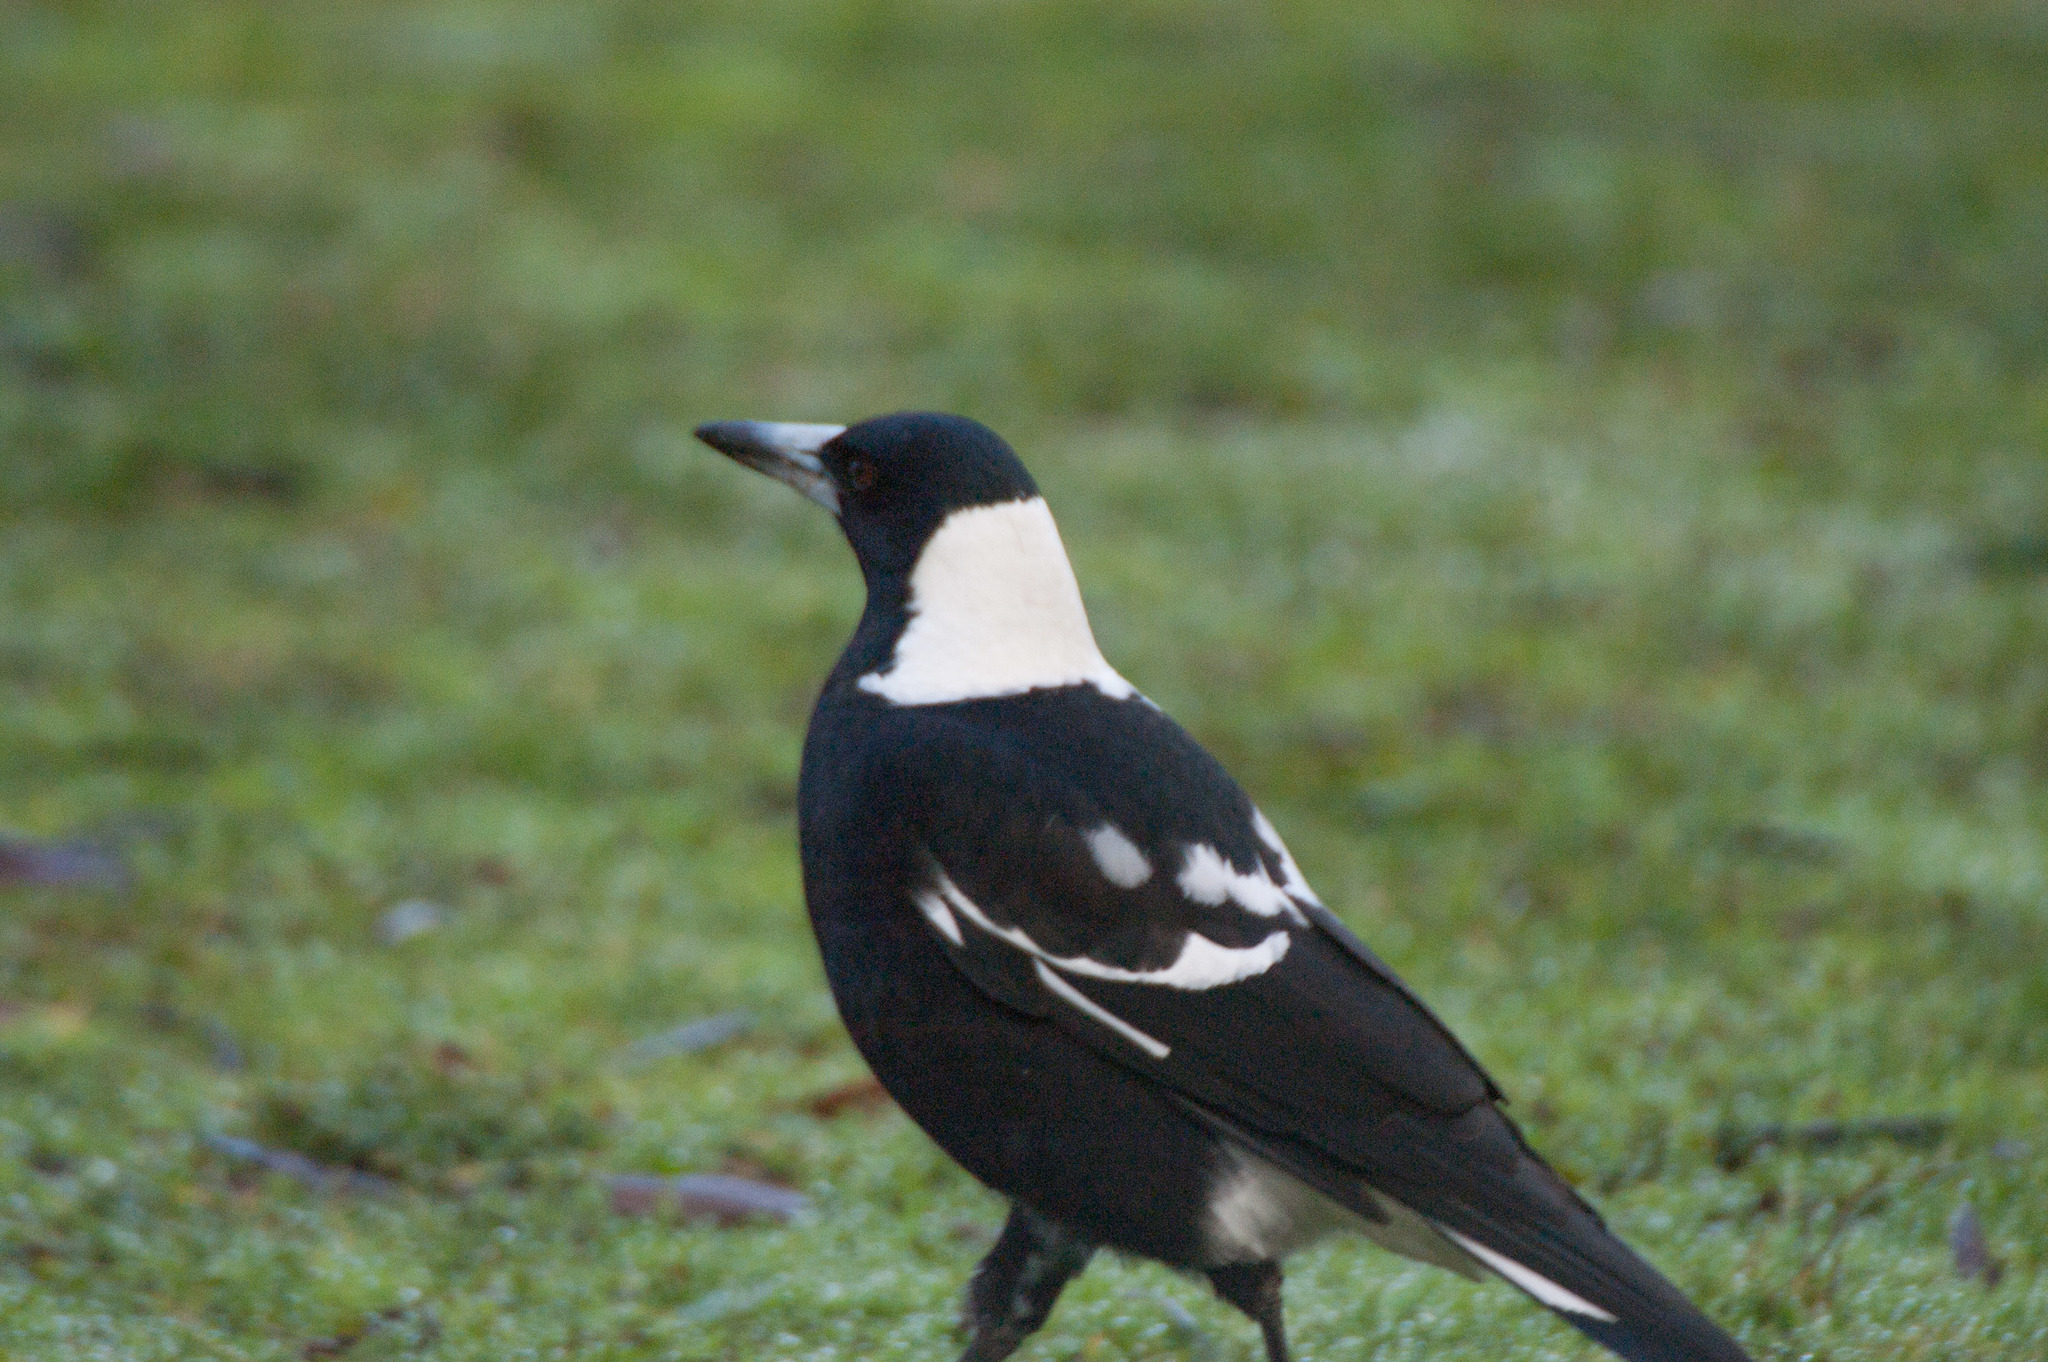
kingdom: Animalia
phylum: Chordata
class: Aves
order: Passeriformes
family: Cracticidae
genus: Gymnorhina
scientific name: Gymnorhina tibicen
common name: Australian magpie
